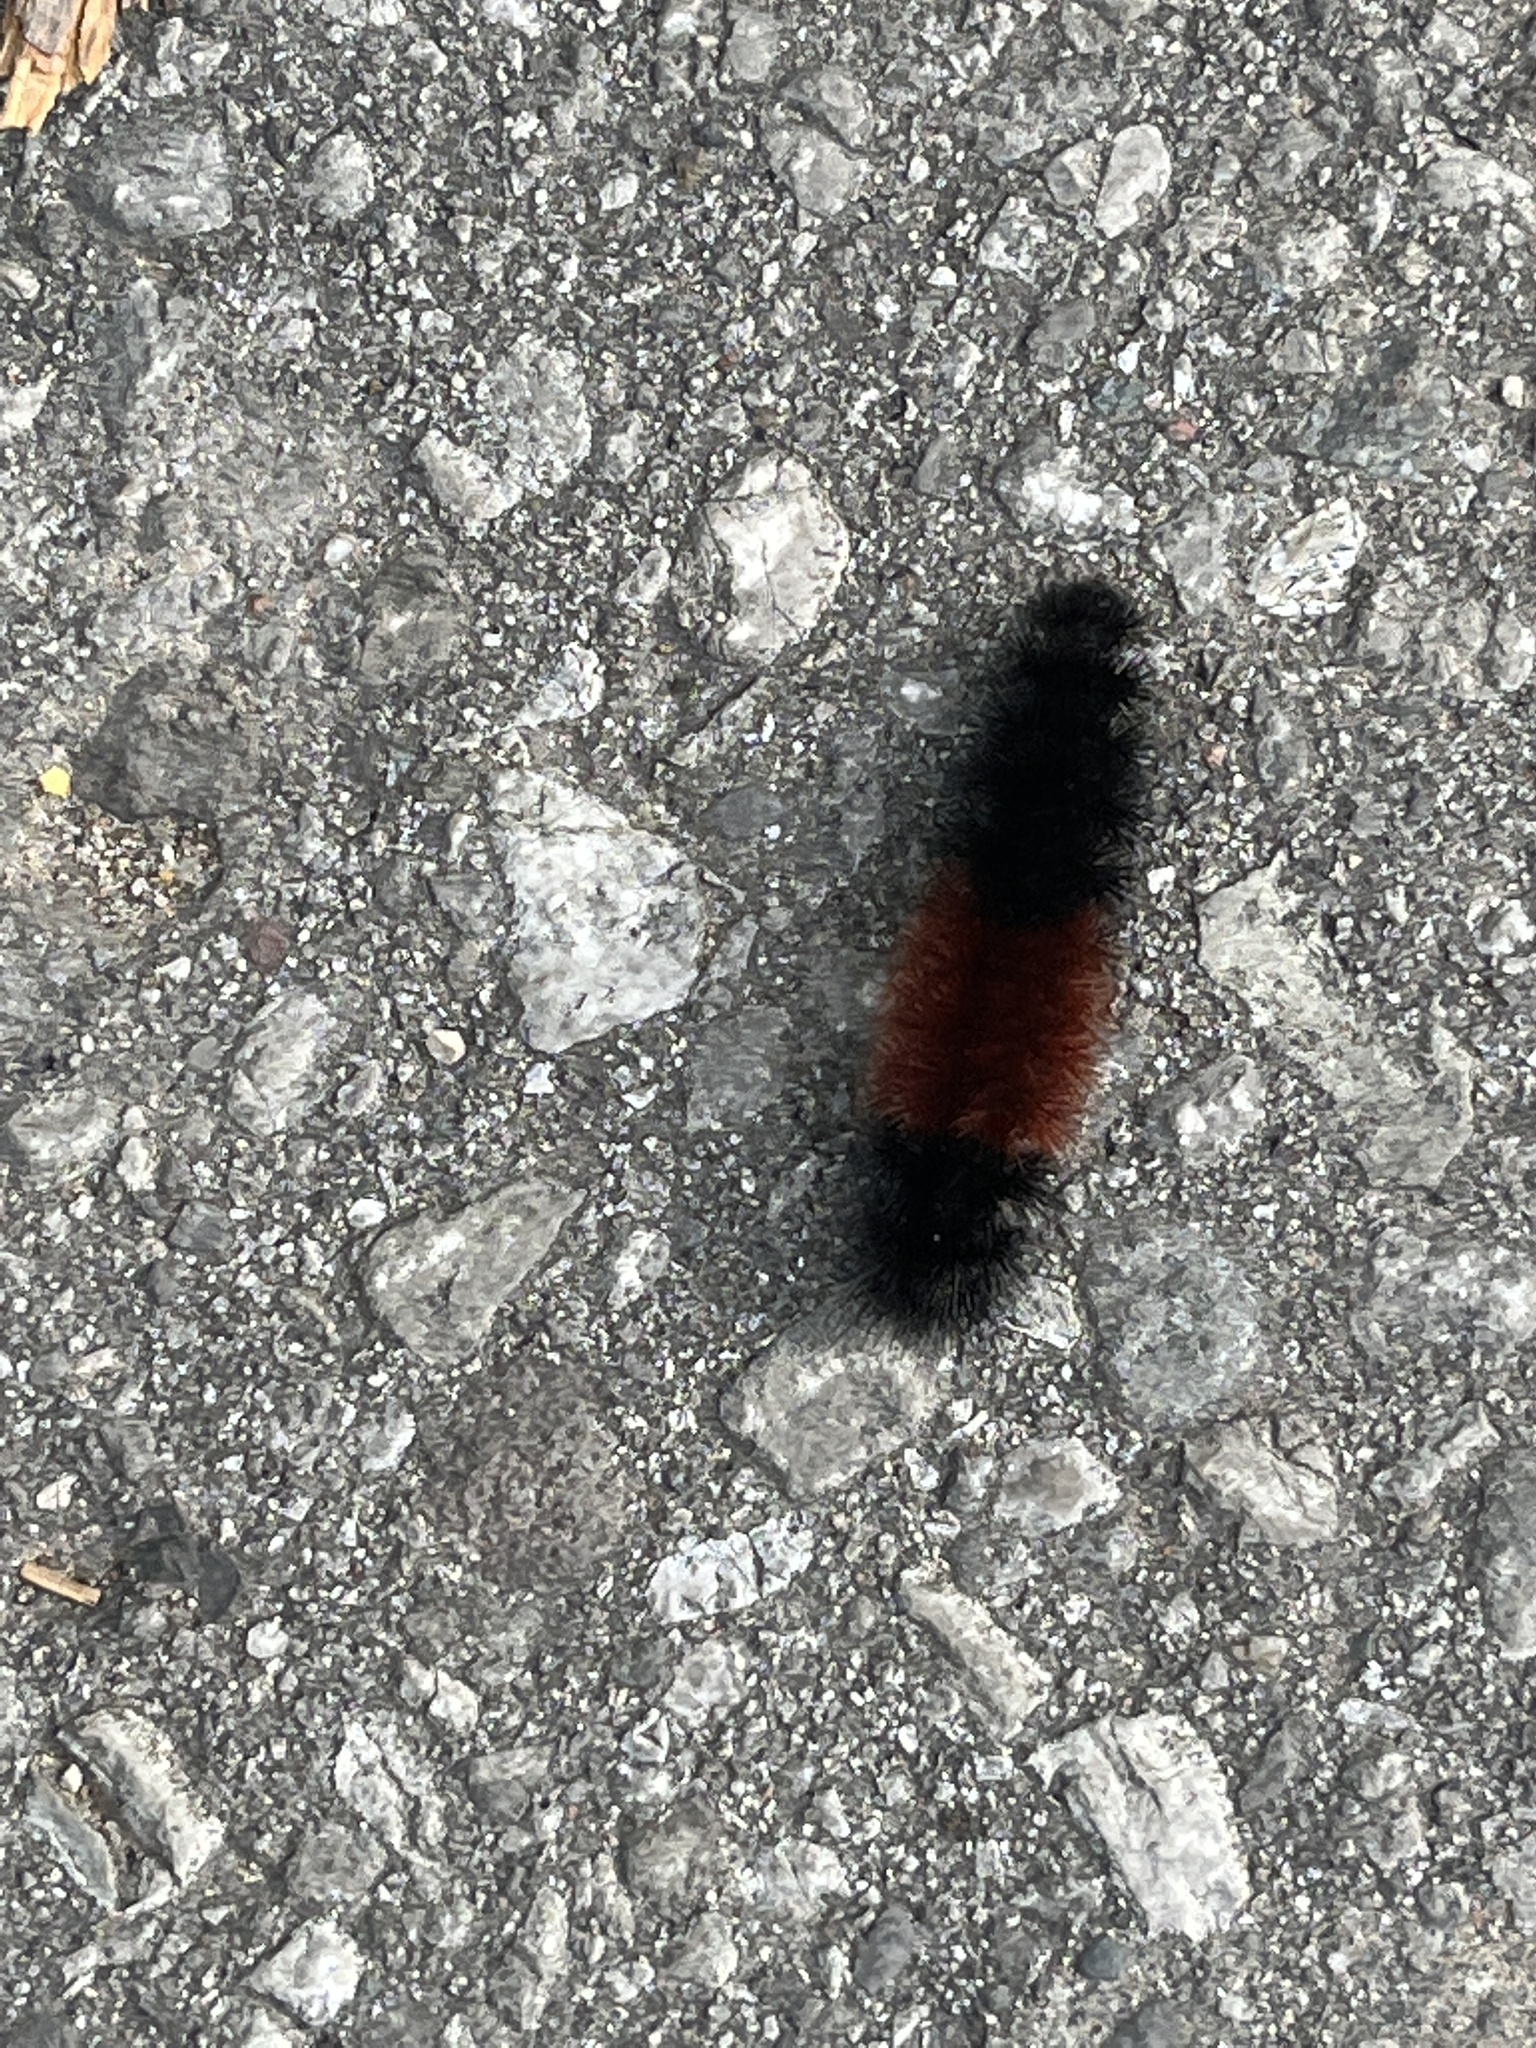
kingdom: Animalia
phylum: Arthropoda
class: Insecta
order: Lepidoptera
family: Erebidae
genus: Pyrrharctia
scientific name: Pyrrharctia isabella
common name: Isabella tiger moth
